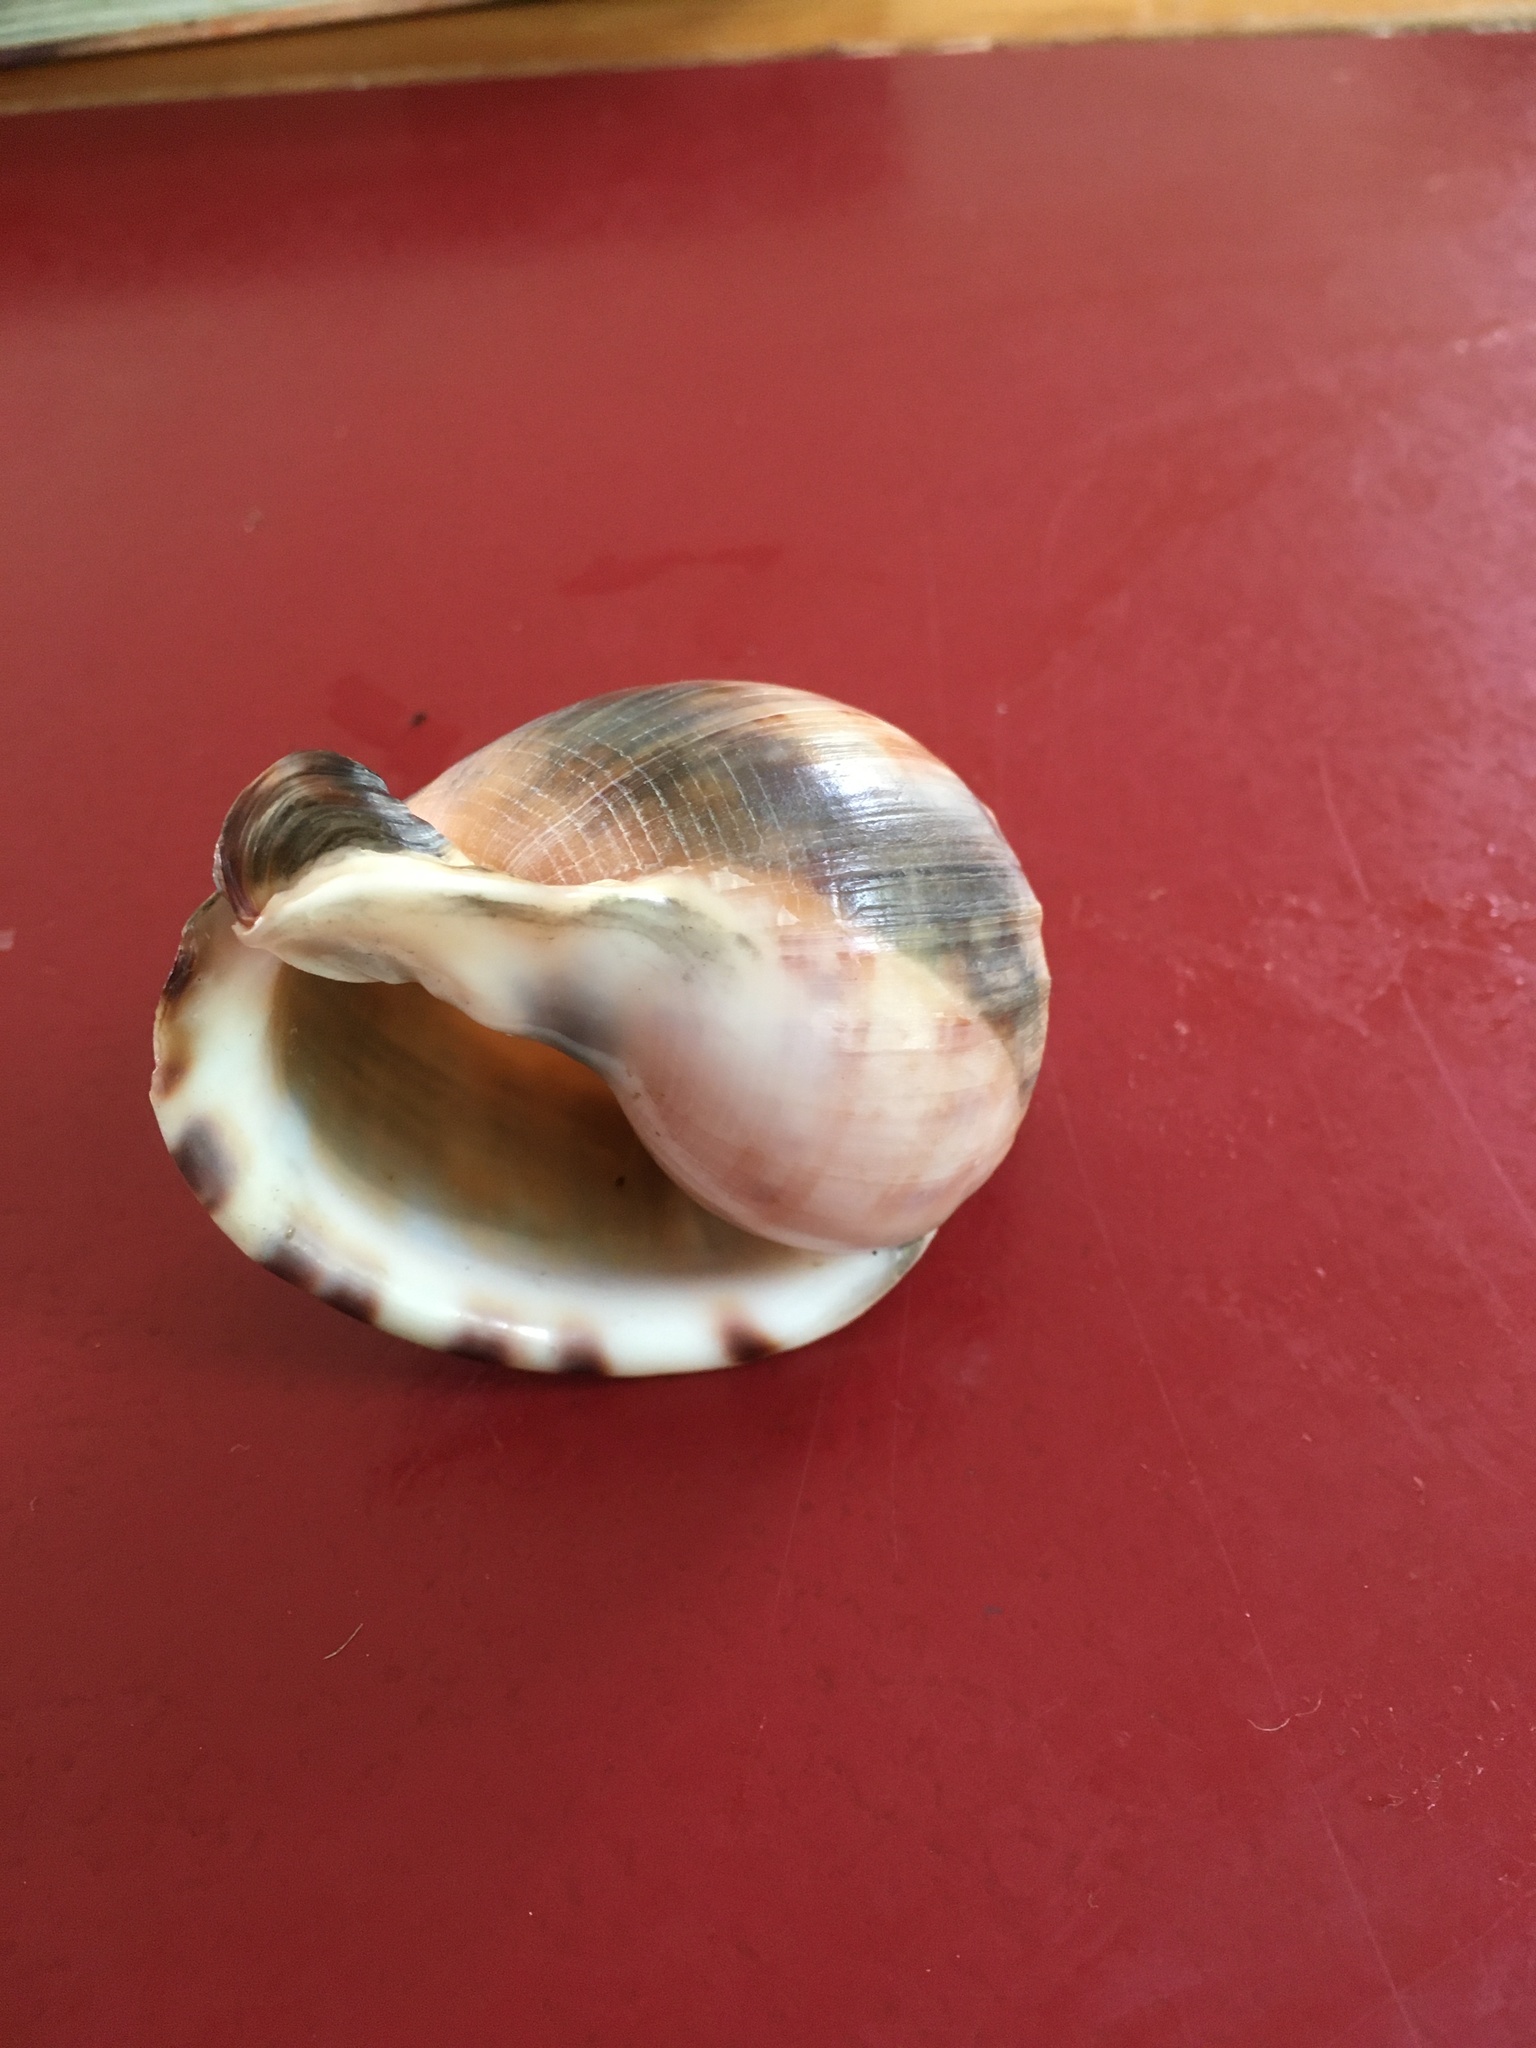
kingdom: Animalia
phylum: Mollusca
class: Gastropoda
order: Littorinimorpha
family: Cassidae
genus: Semicassis
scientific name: Semicassis pyrum
